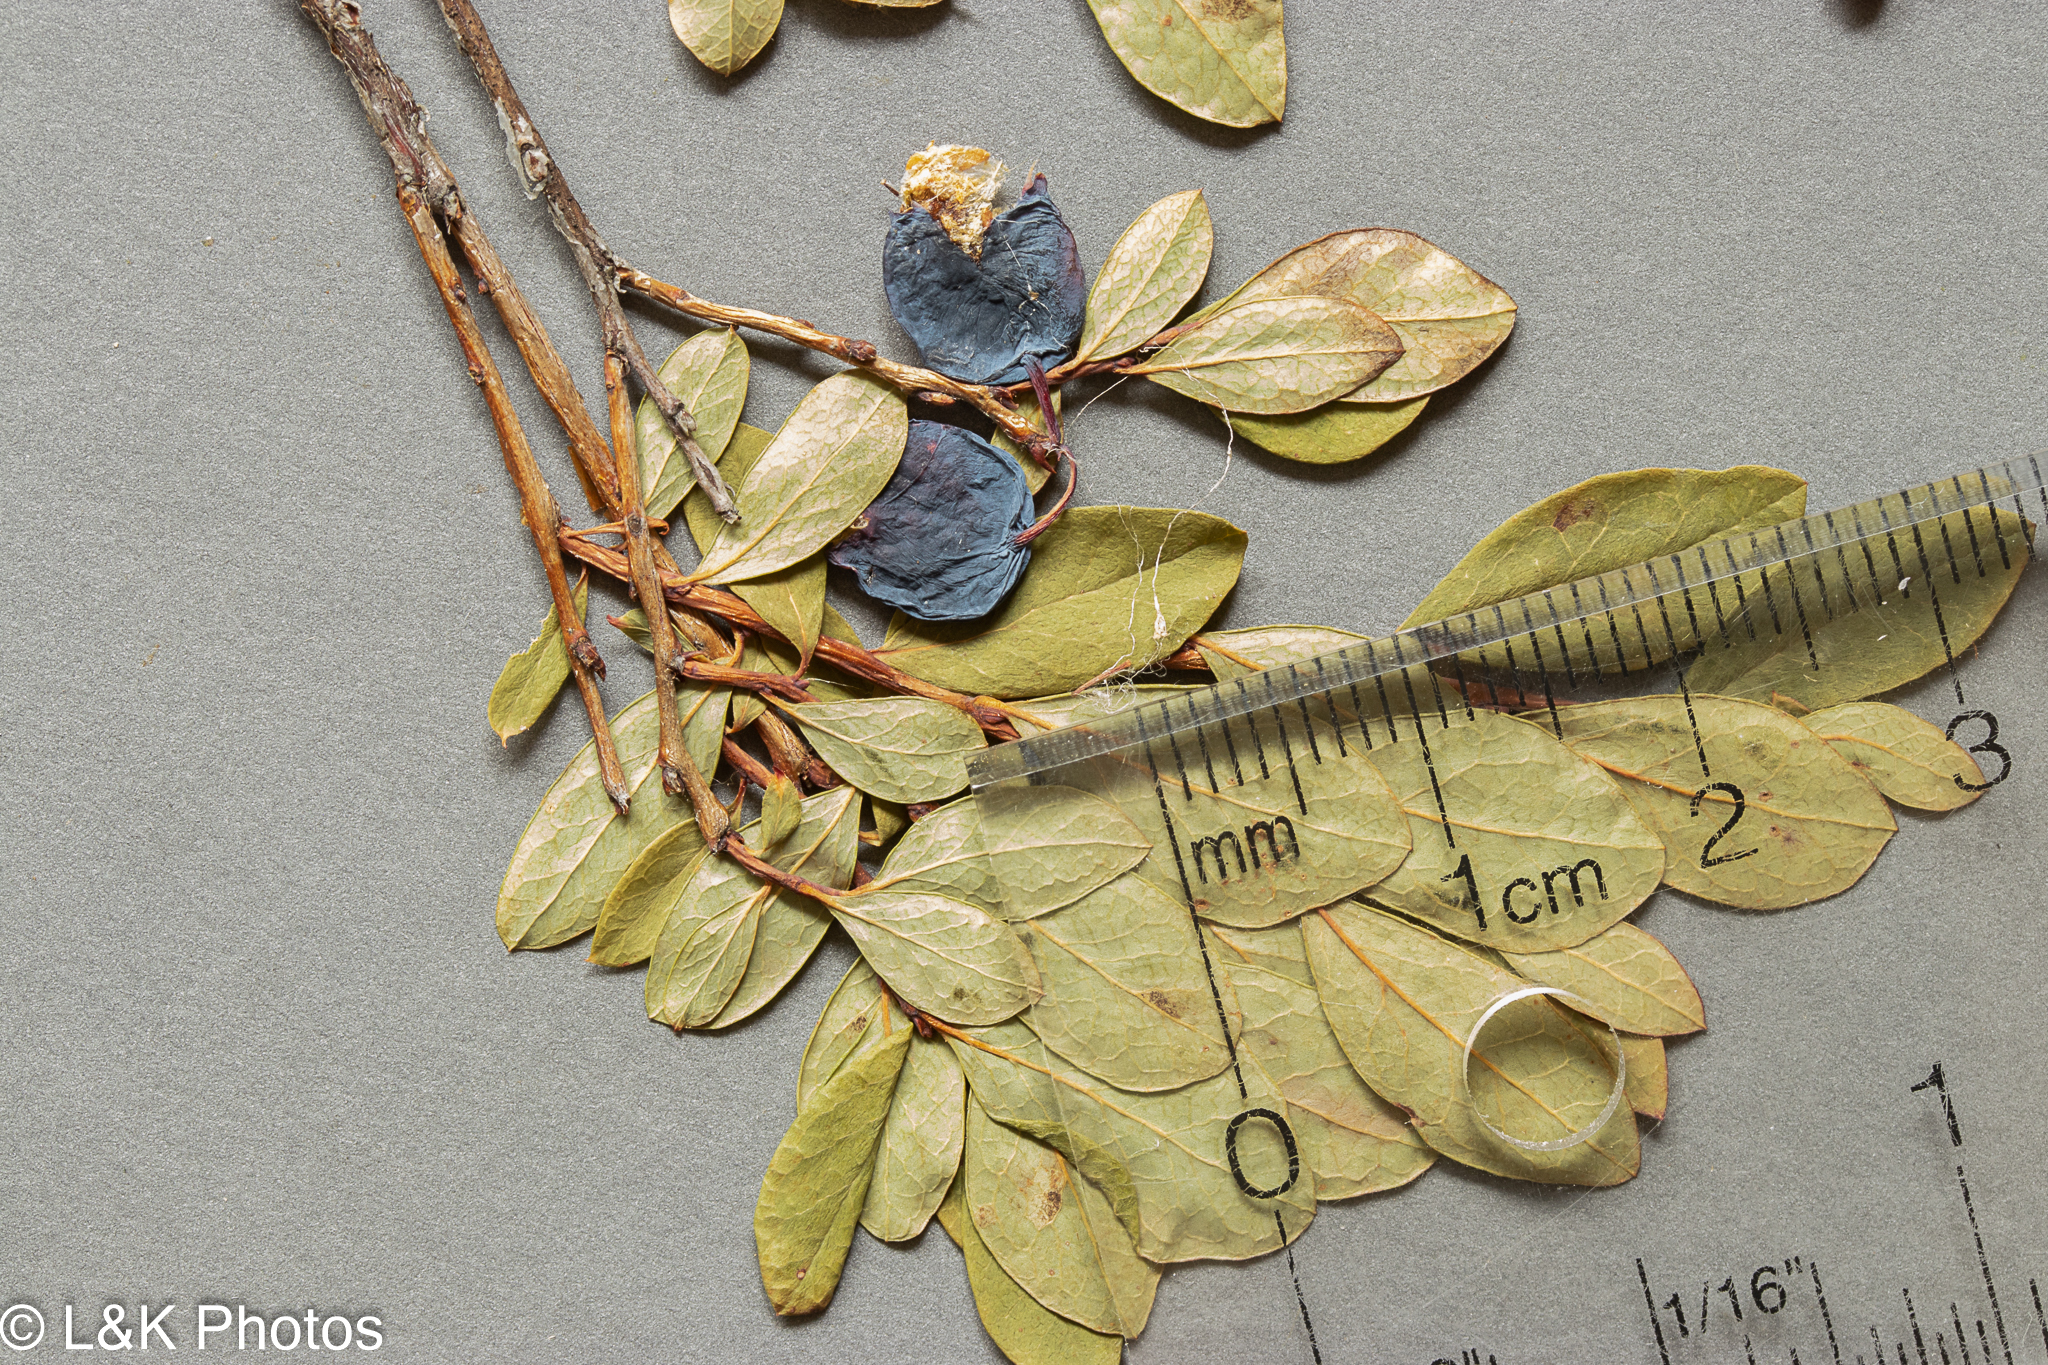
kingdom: Plantae
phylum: Tracheophyta
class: Magnoliopsida
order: Ericales
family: Ericaceae
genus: Vaccinium
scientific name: Vaccinium uliginosum
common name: Bog bilberry
